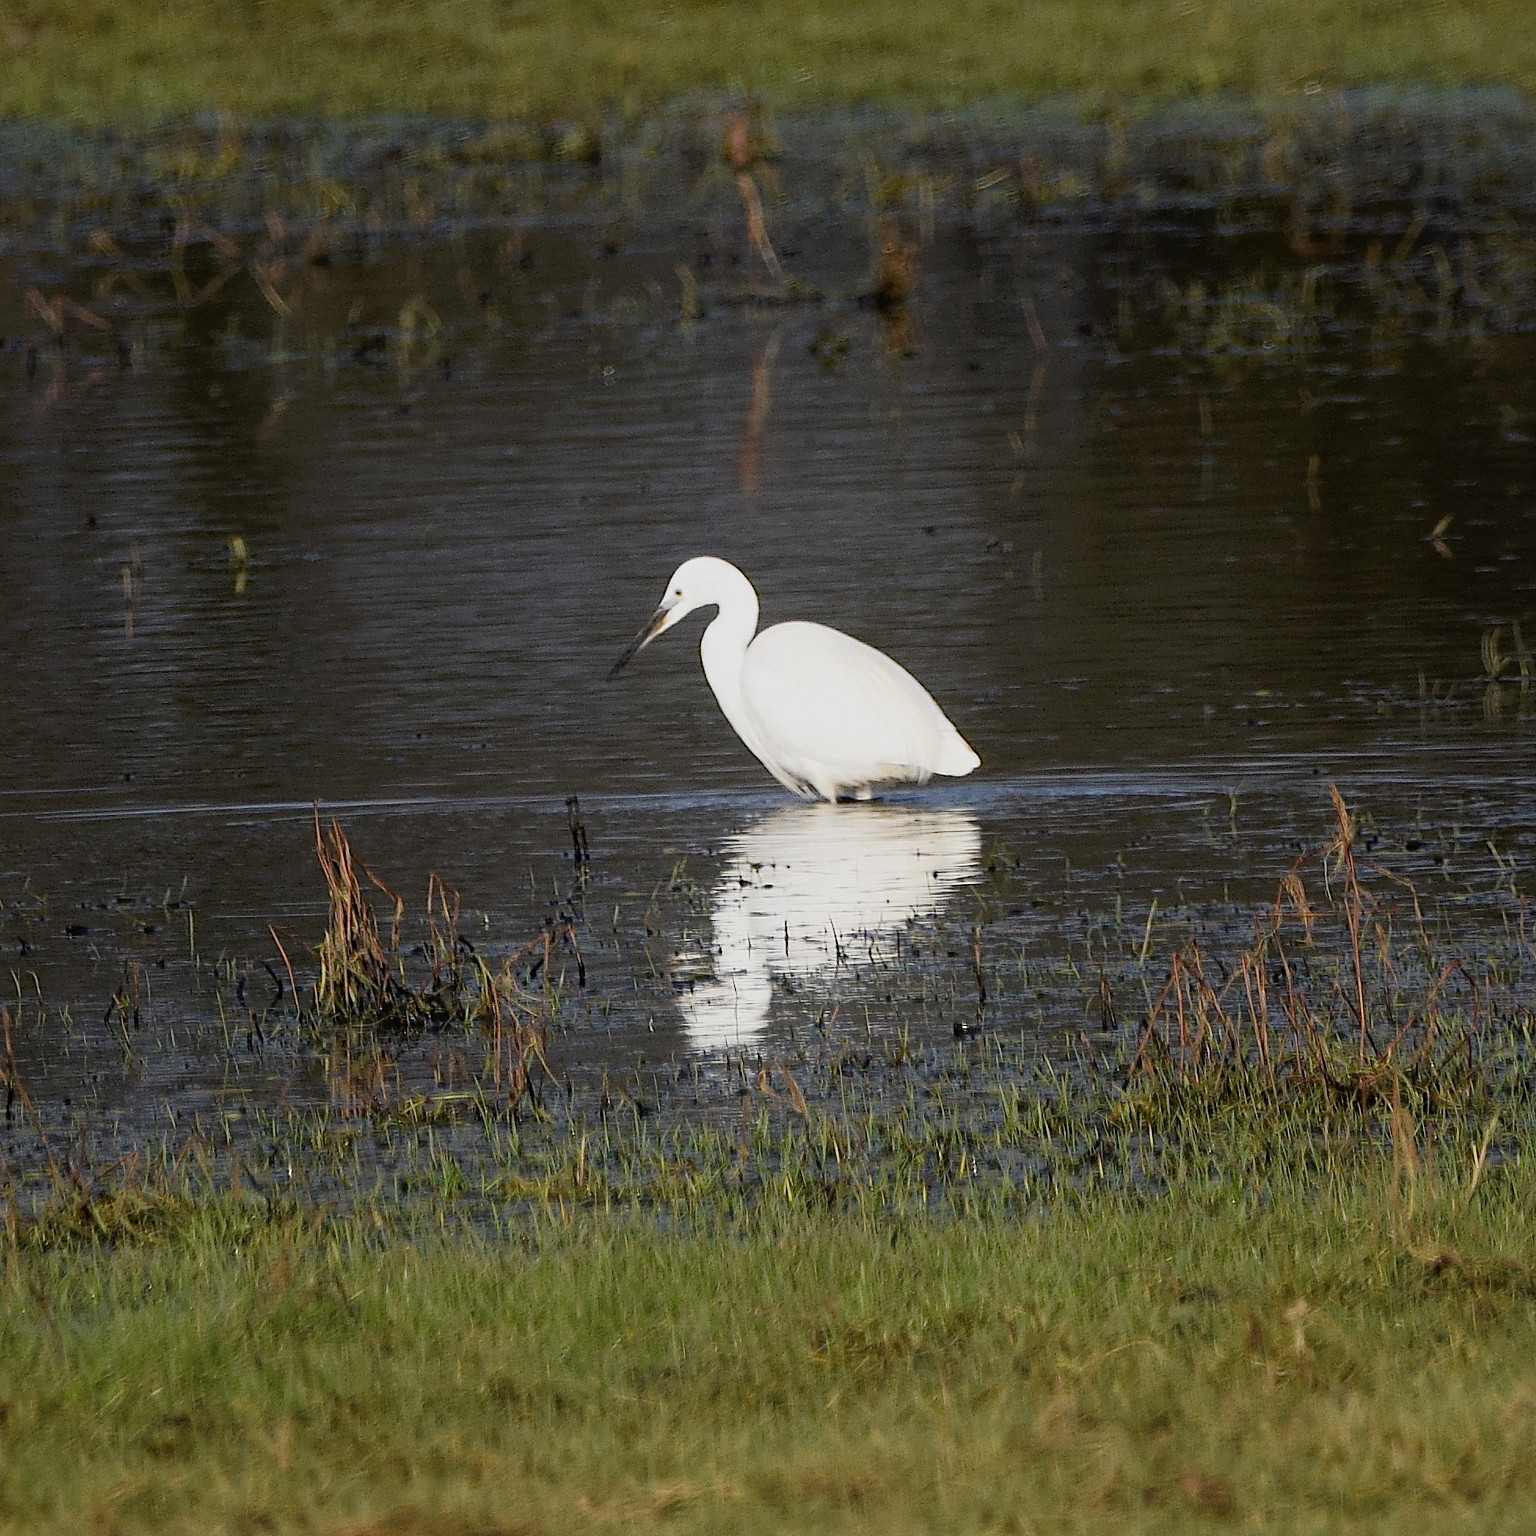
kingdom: Animalia
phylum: Chordata
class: Aves
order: Pelecaniformes
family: Ardeidae
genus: Egretta
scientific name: Egretta garzetta
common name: Little egret
